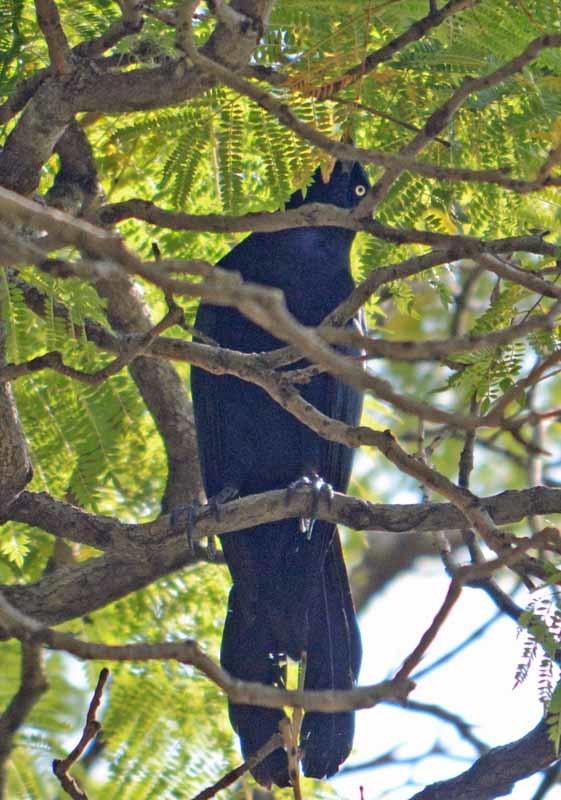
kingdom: Animalia
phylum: Chordata
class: Aves
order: Passeriformes
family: Icteridae
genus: Quiscalus
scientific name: Quiscalus mexicanus
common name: Great-tailed grackle
